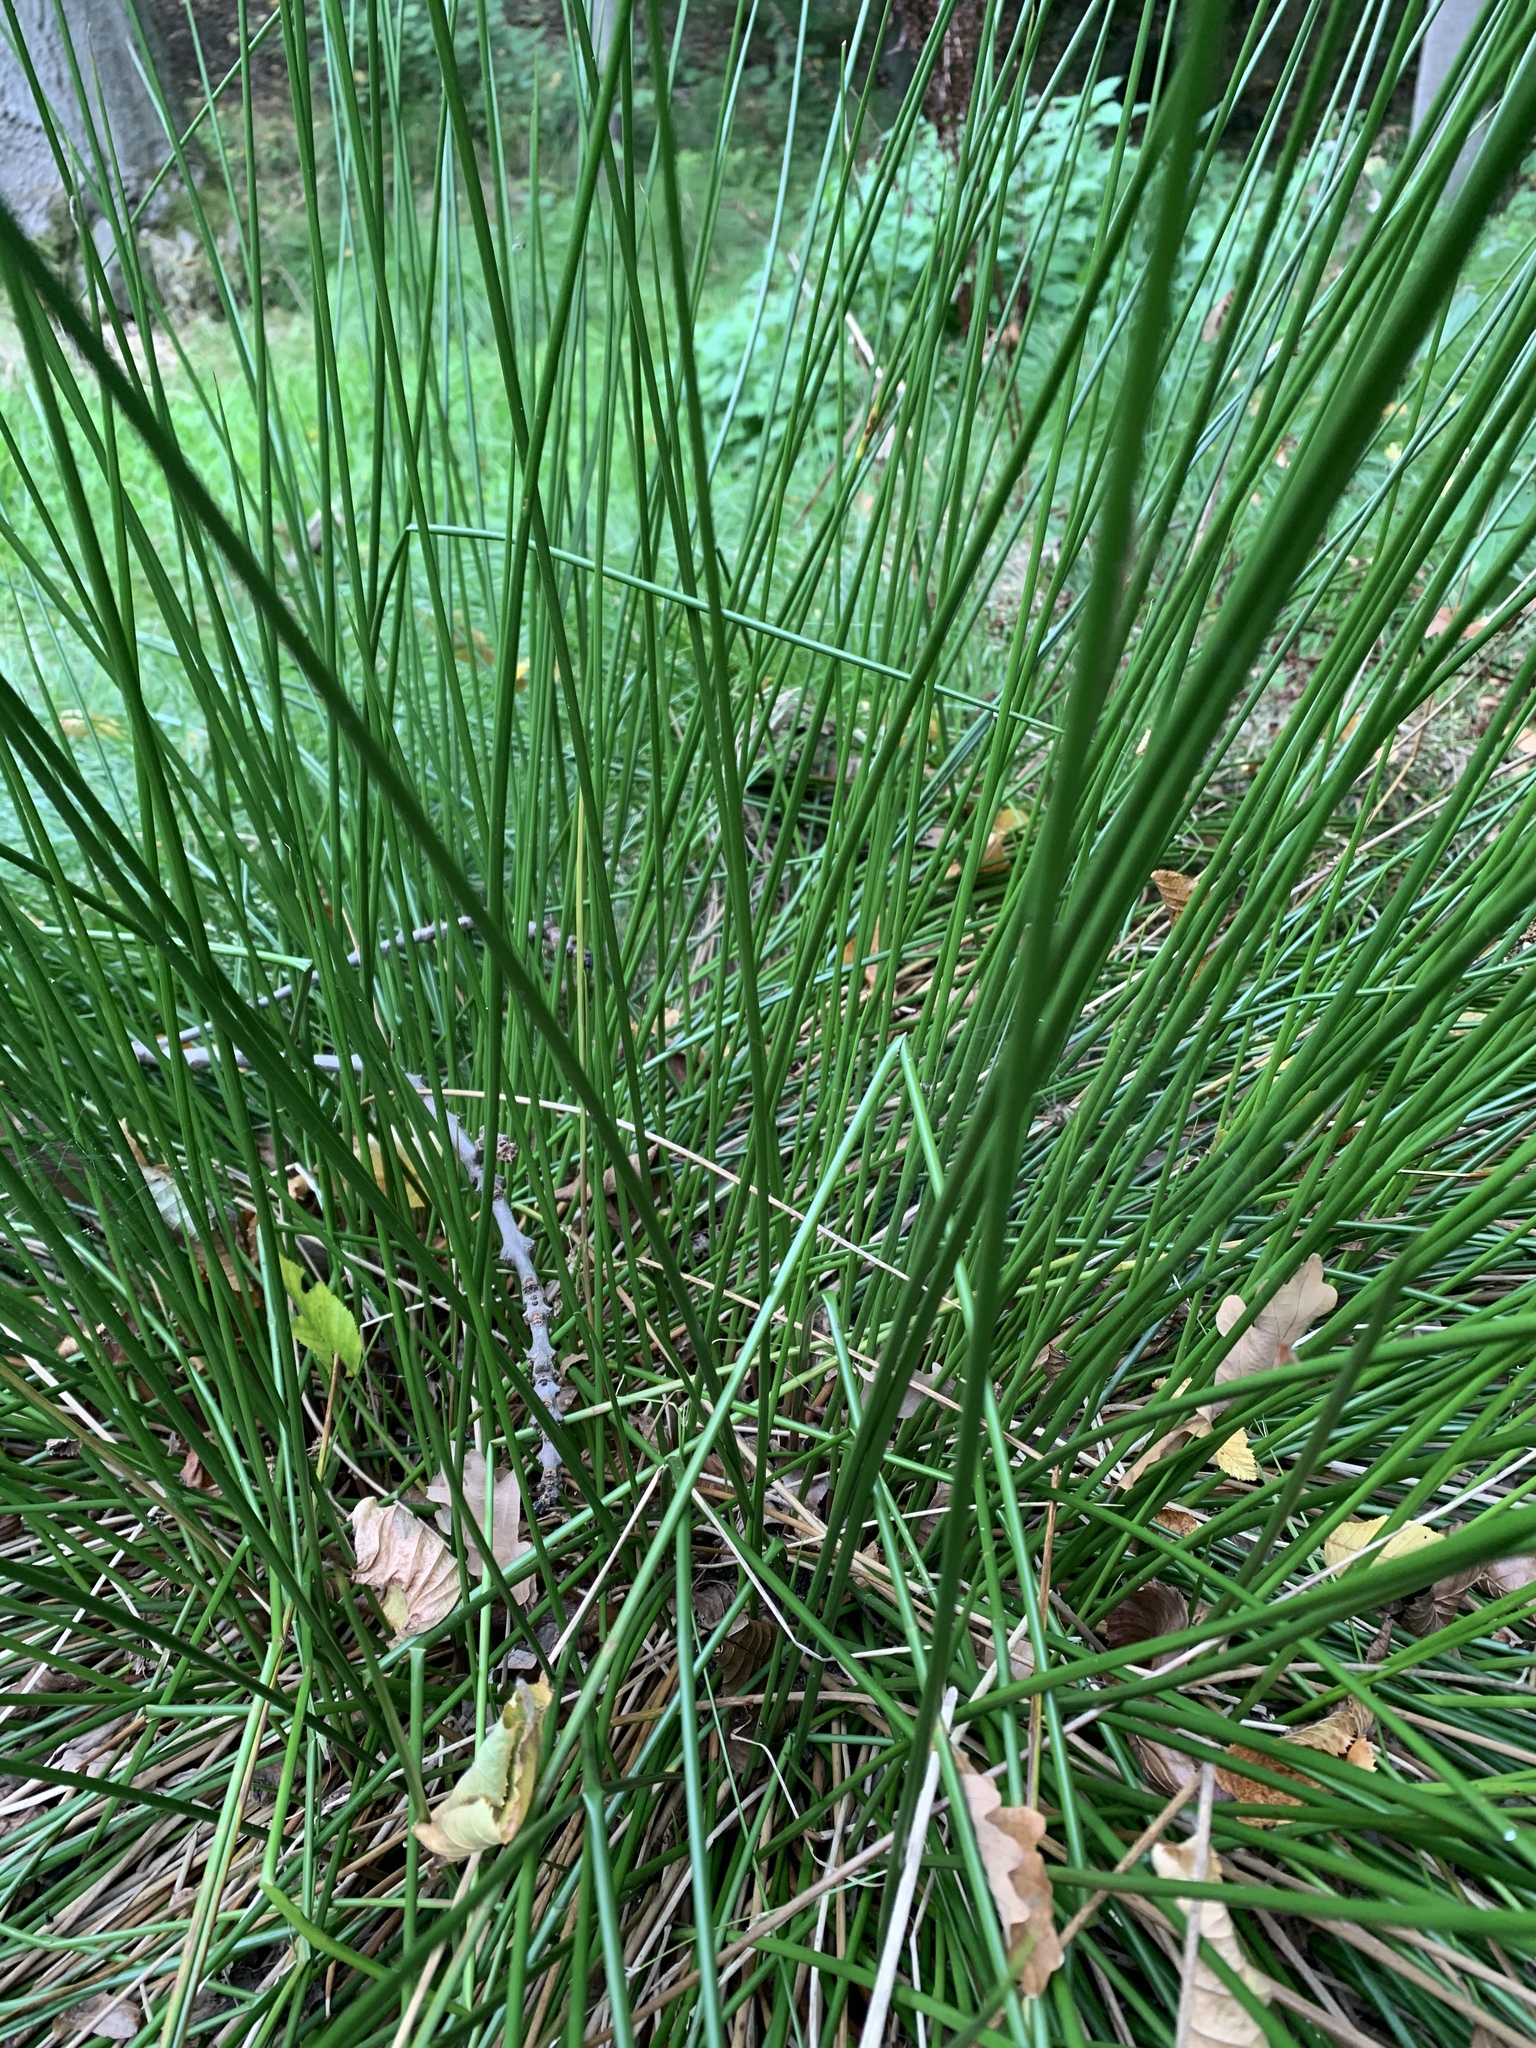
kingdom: Plantae
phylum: Tracheophyta
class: Liliopsida
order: Poales
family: Juncaceae
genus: Juncus
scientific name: Juncus effusus
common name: Soft rush
